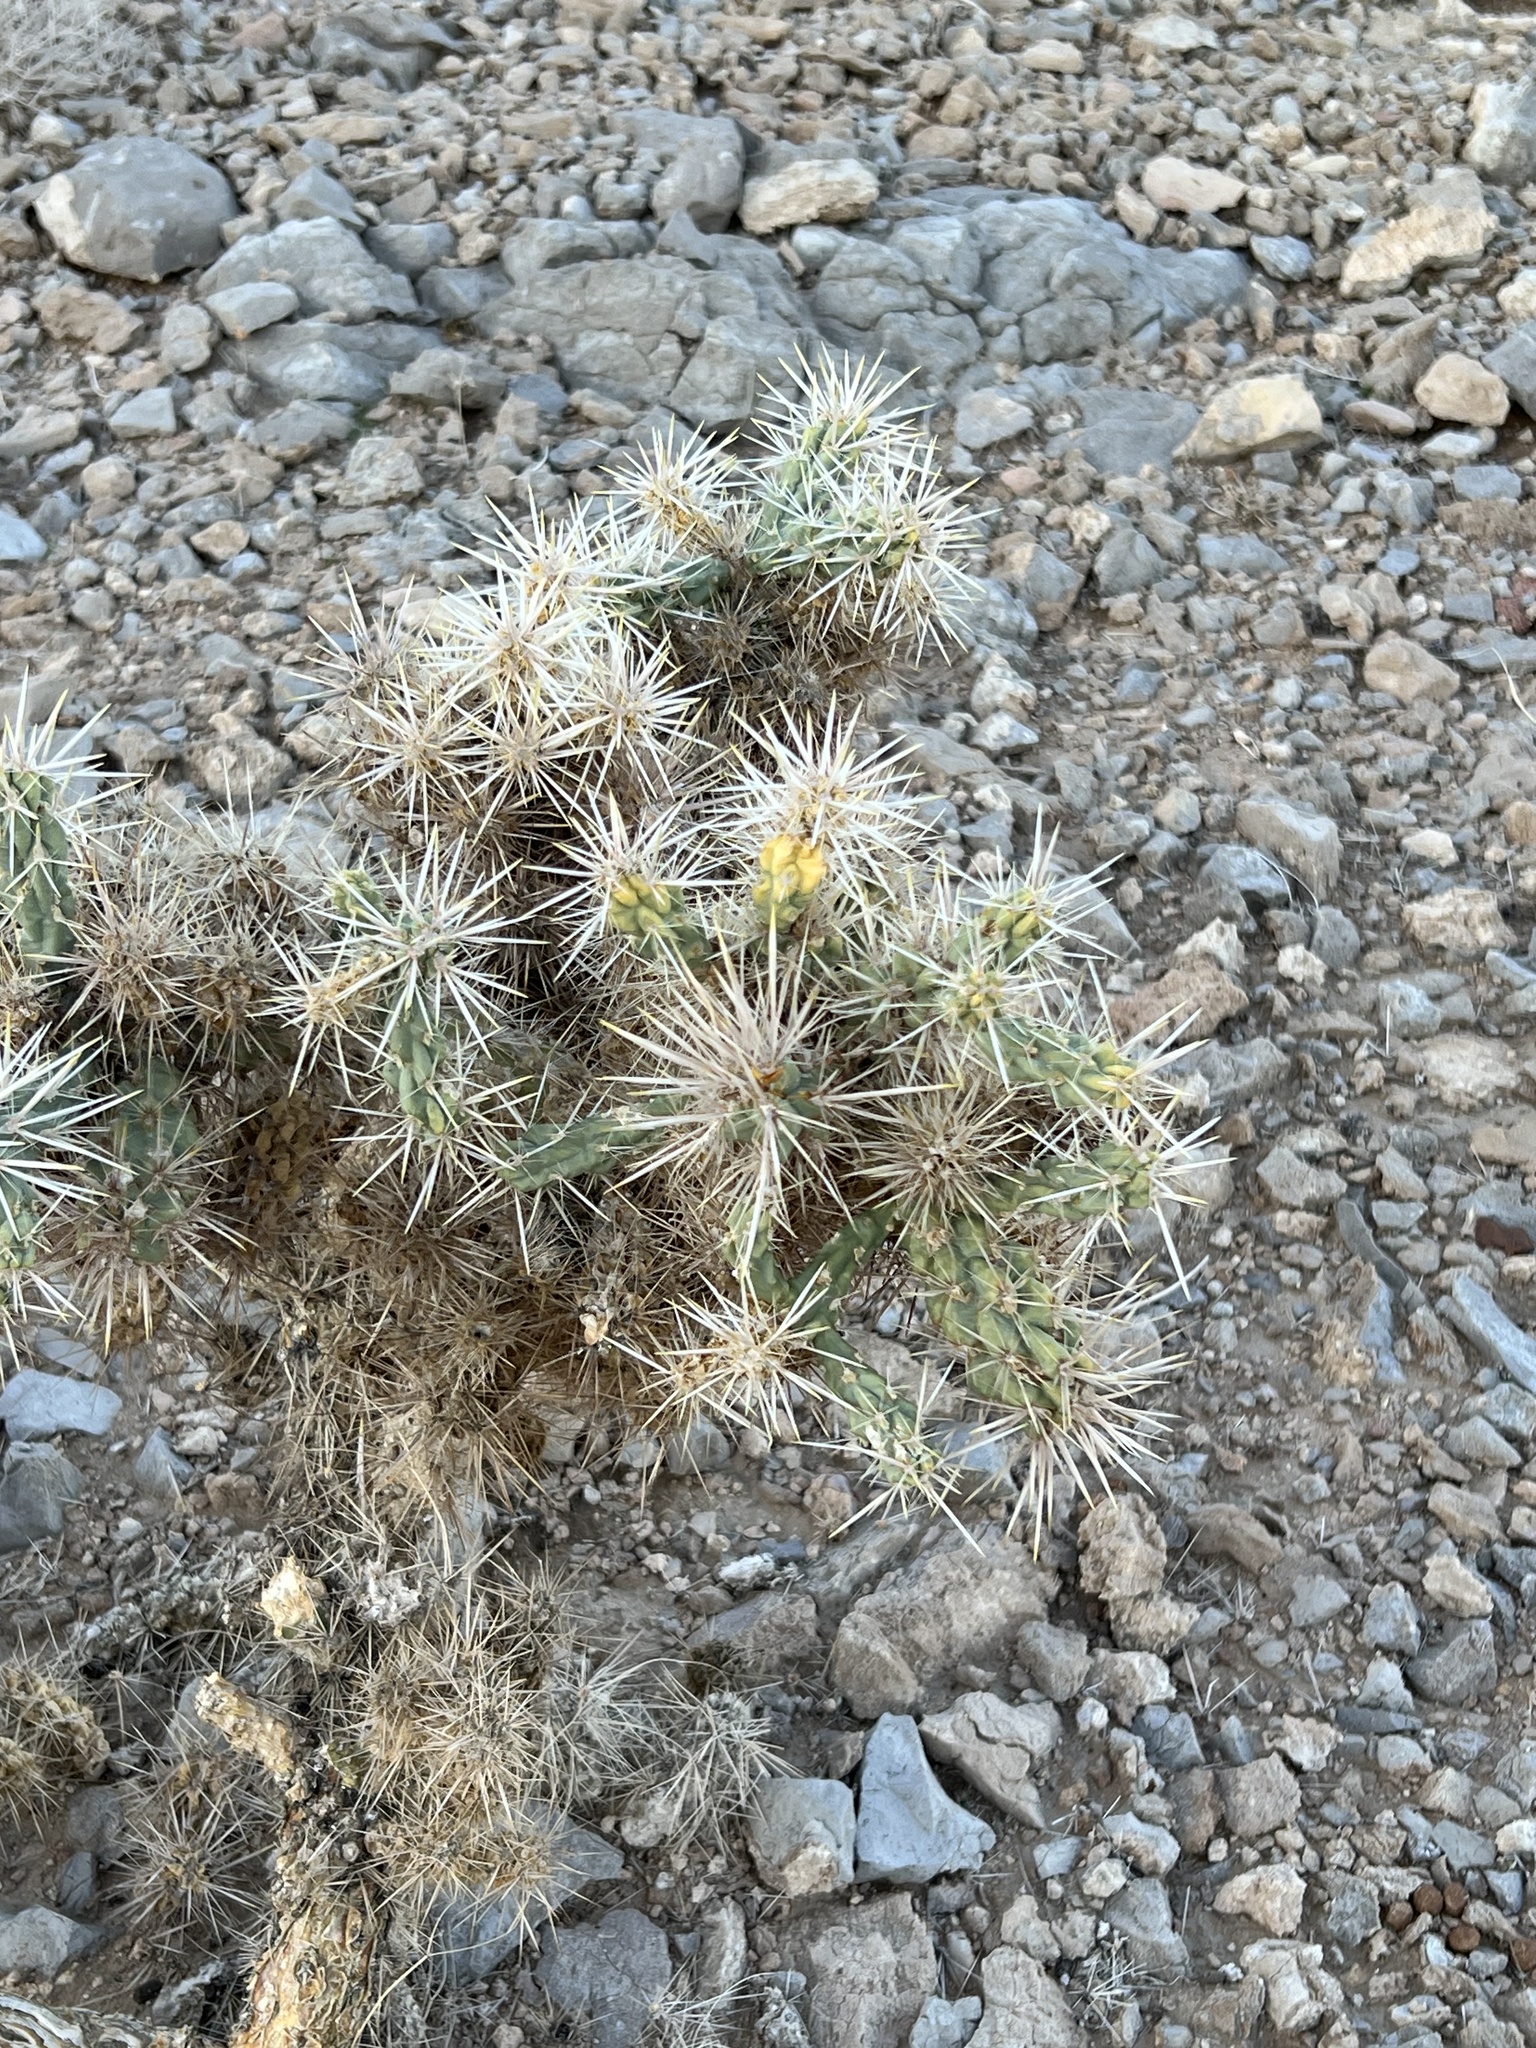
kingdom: Plantae
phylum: Tracheophyta
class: Magnoliopsida
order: Caryophyllales
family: Cactaceae
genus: Cylindropuntia
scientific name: Cylindropuntia echinocarpa
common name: Ground cholla
